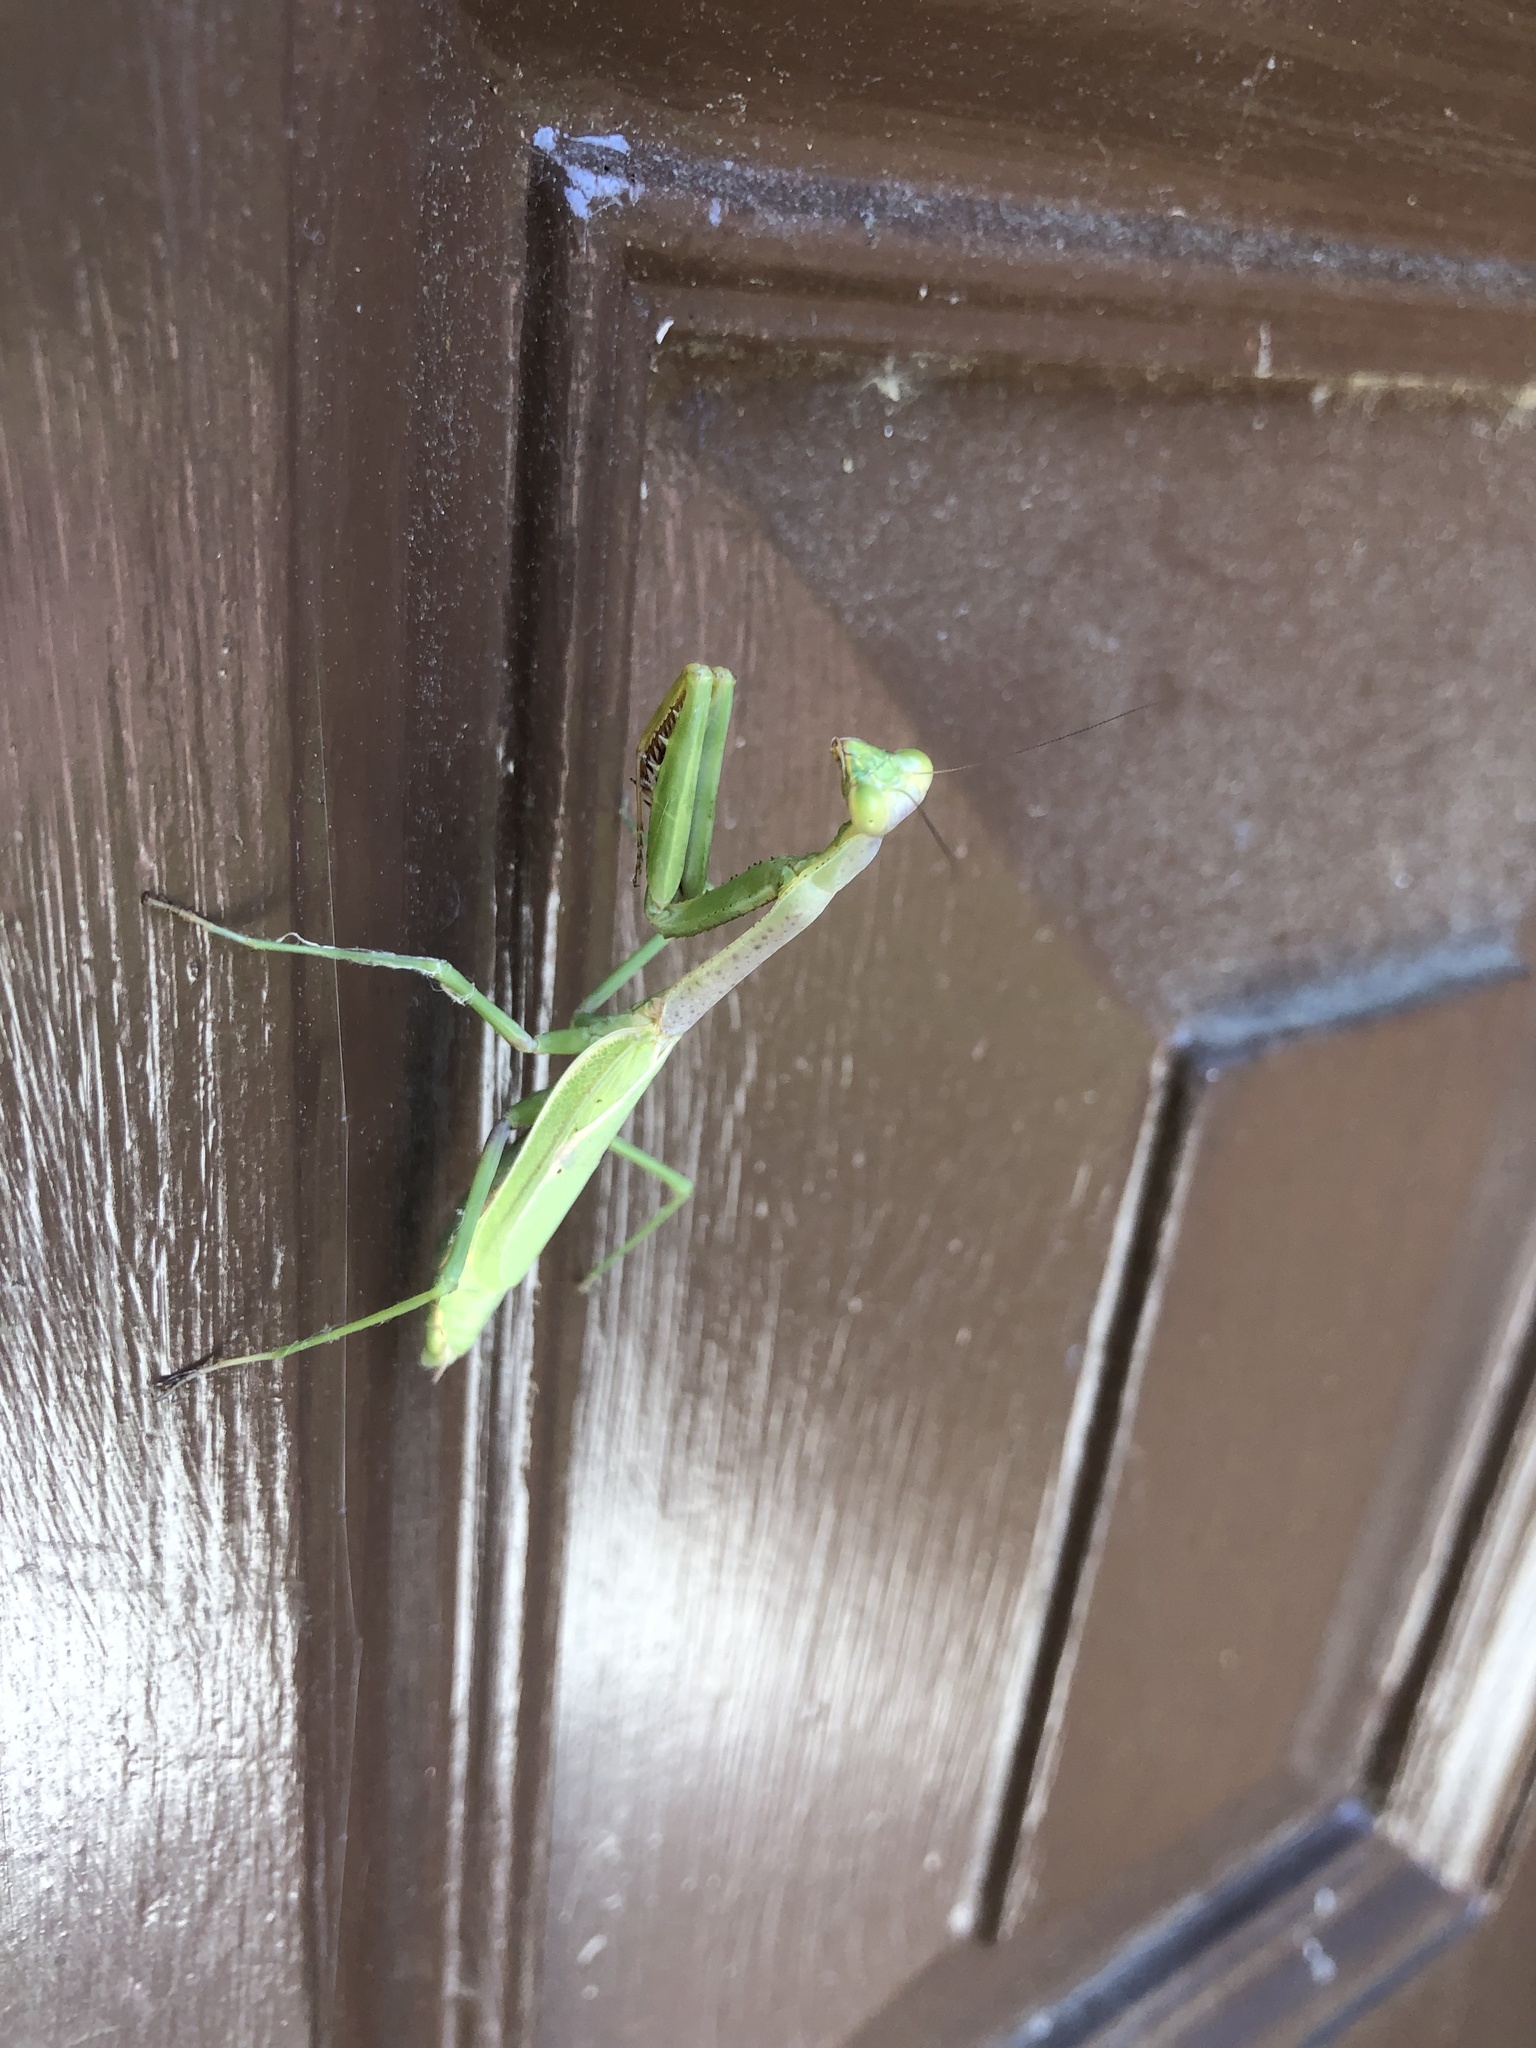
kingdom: Animalia
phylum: Arthropoda
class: Insecta
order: Mantodea
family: Mantidae
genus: Stagmomantis
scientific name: Stagmomantis carolina
